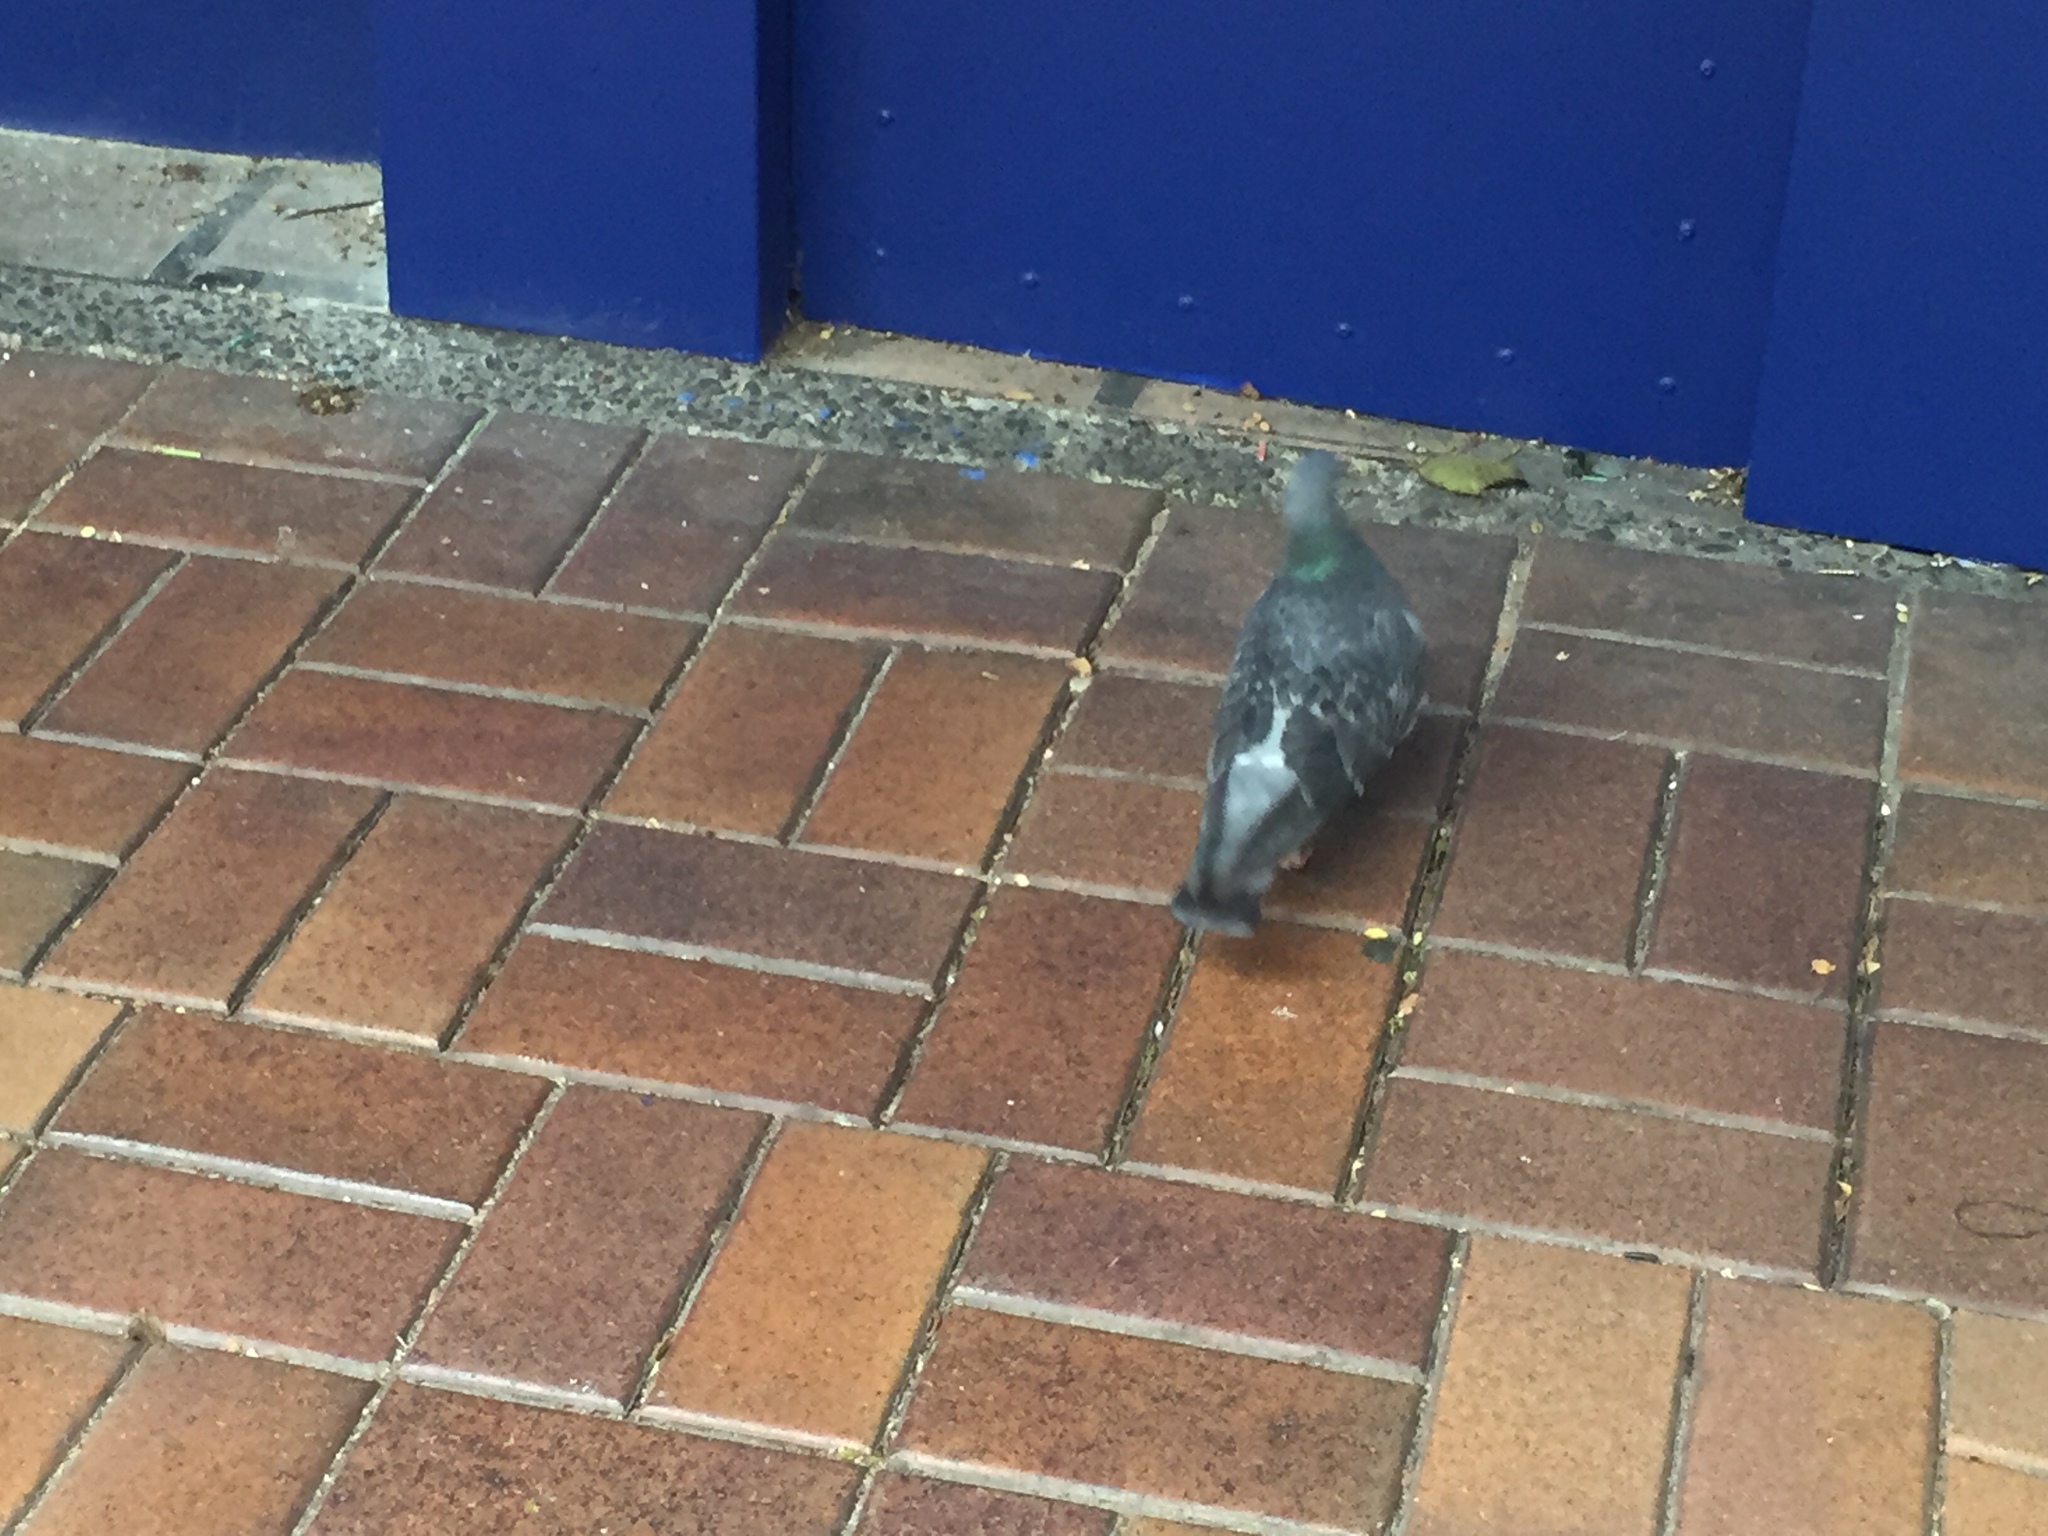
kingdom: Animalia
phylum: Chordata
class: Aves
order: Columbiformes
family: Columbidae
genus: Columba
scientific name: Columba livia
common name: Rock pigeon
